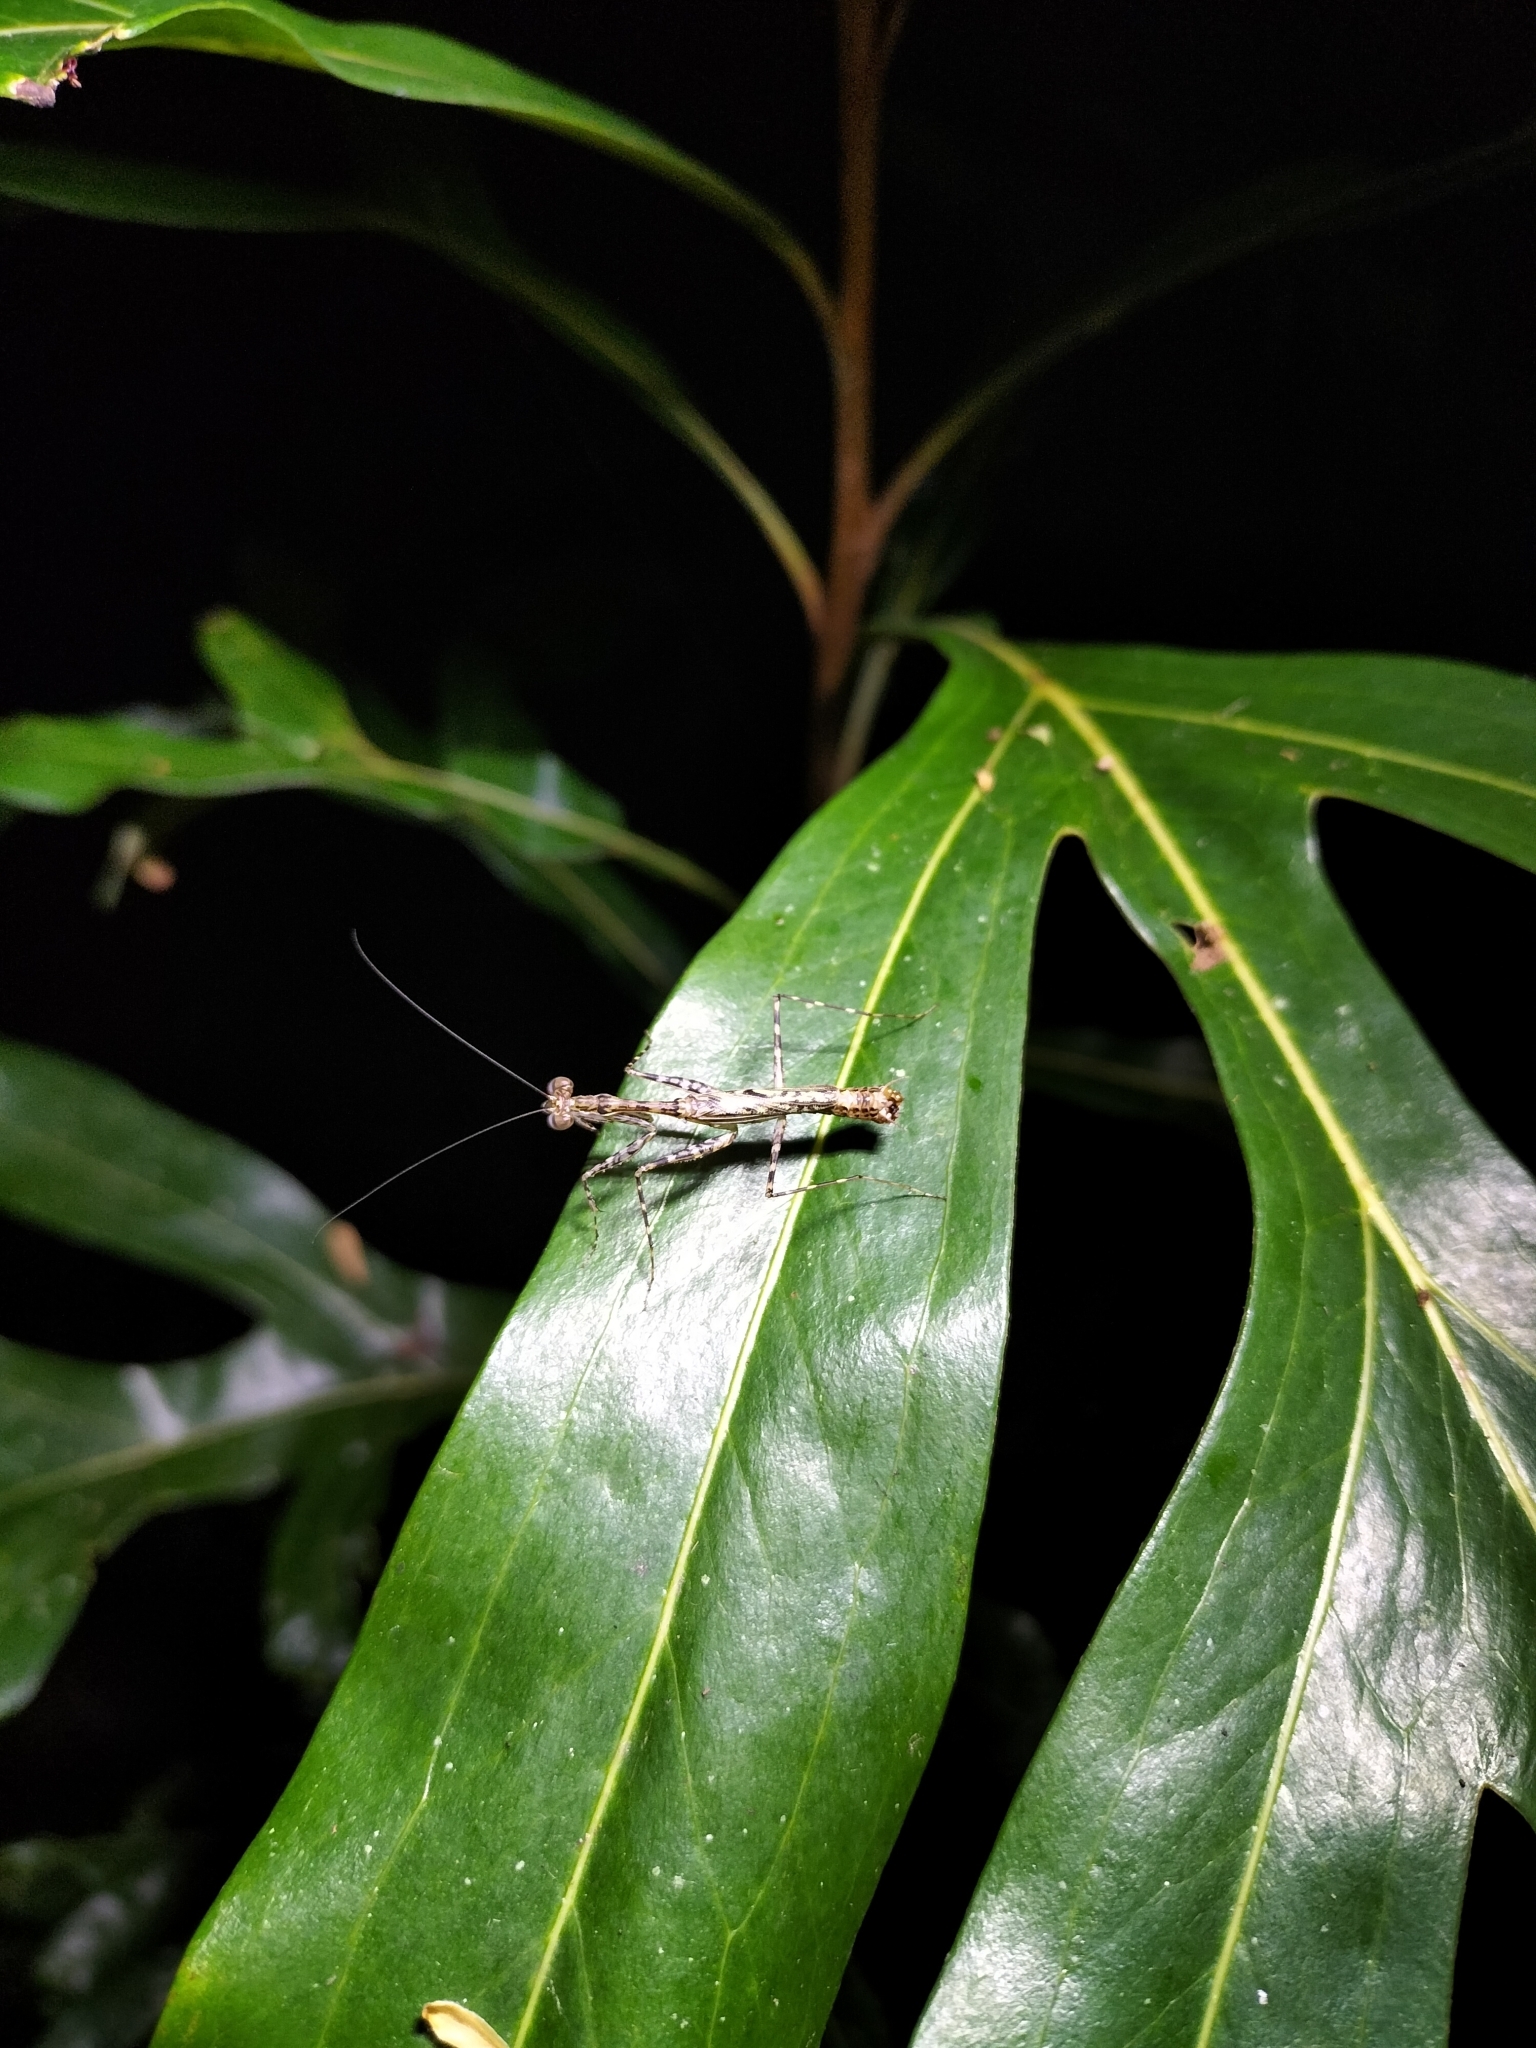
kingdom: Animalia
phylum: Arthropoda
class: Insecta
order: Mantodea
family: Nanomantidae
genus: Ciulfina
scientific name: Ciulfina rentzi
